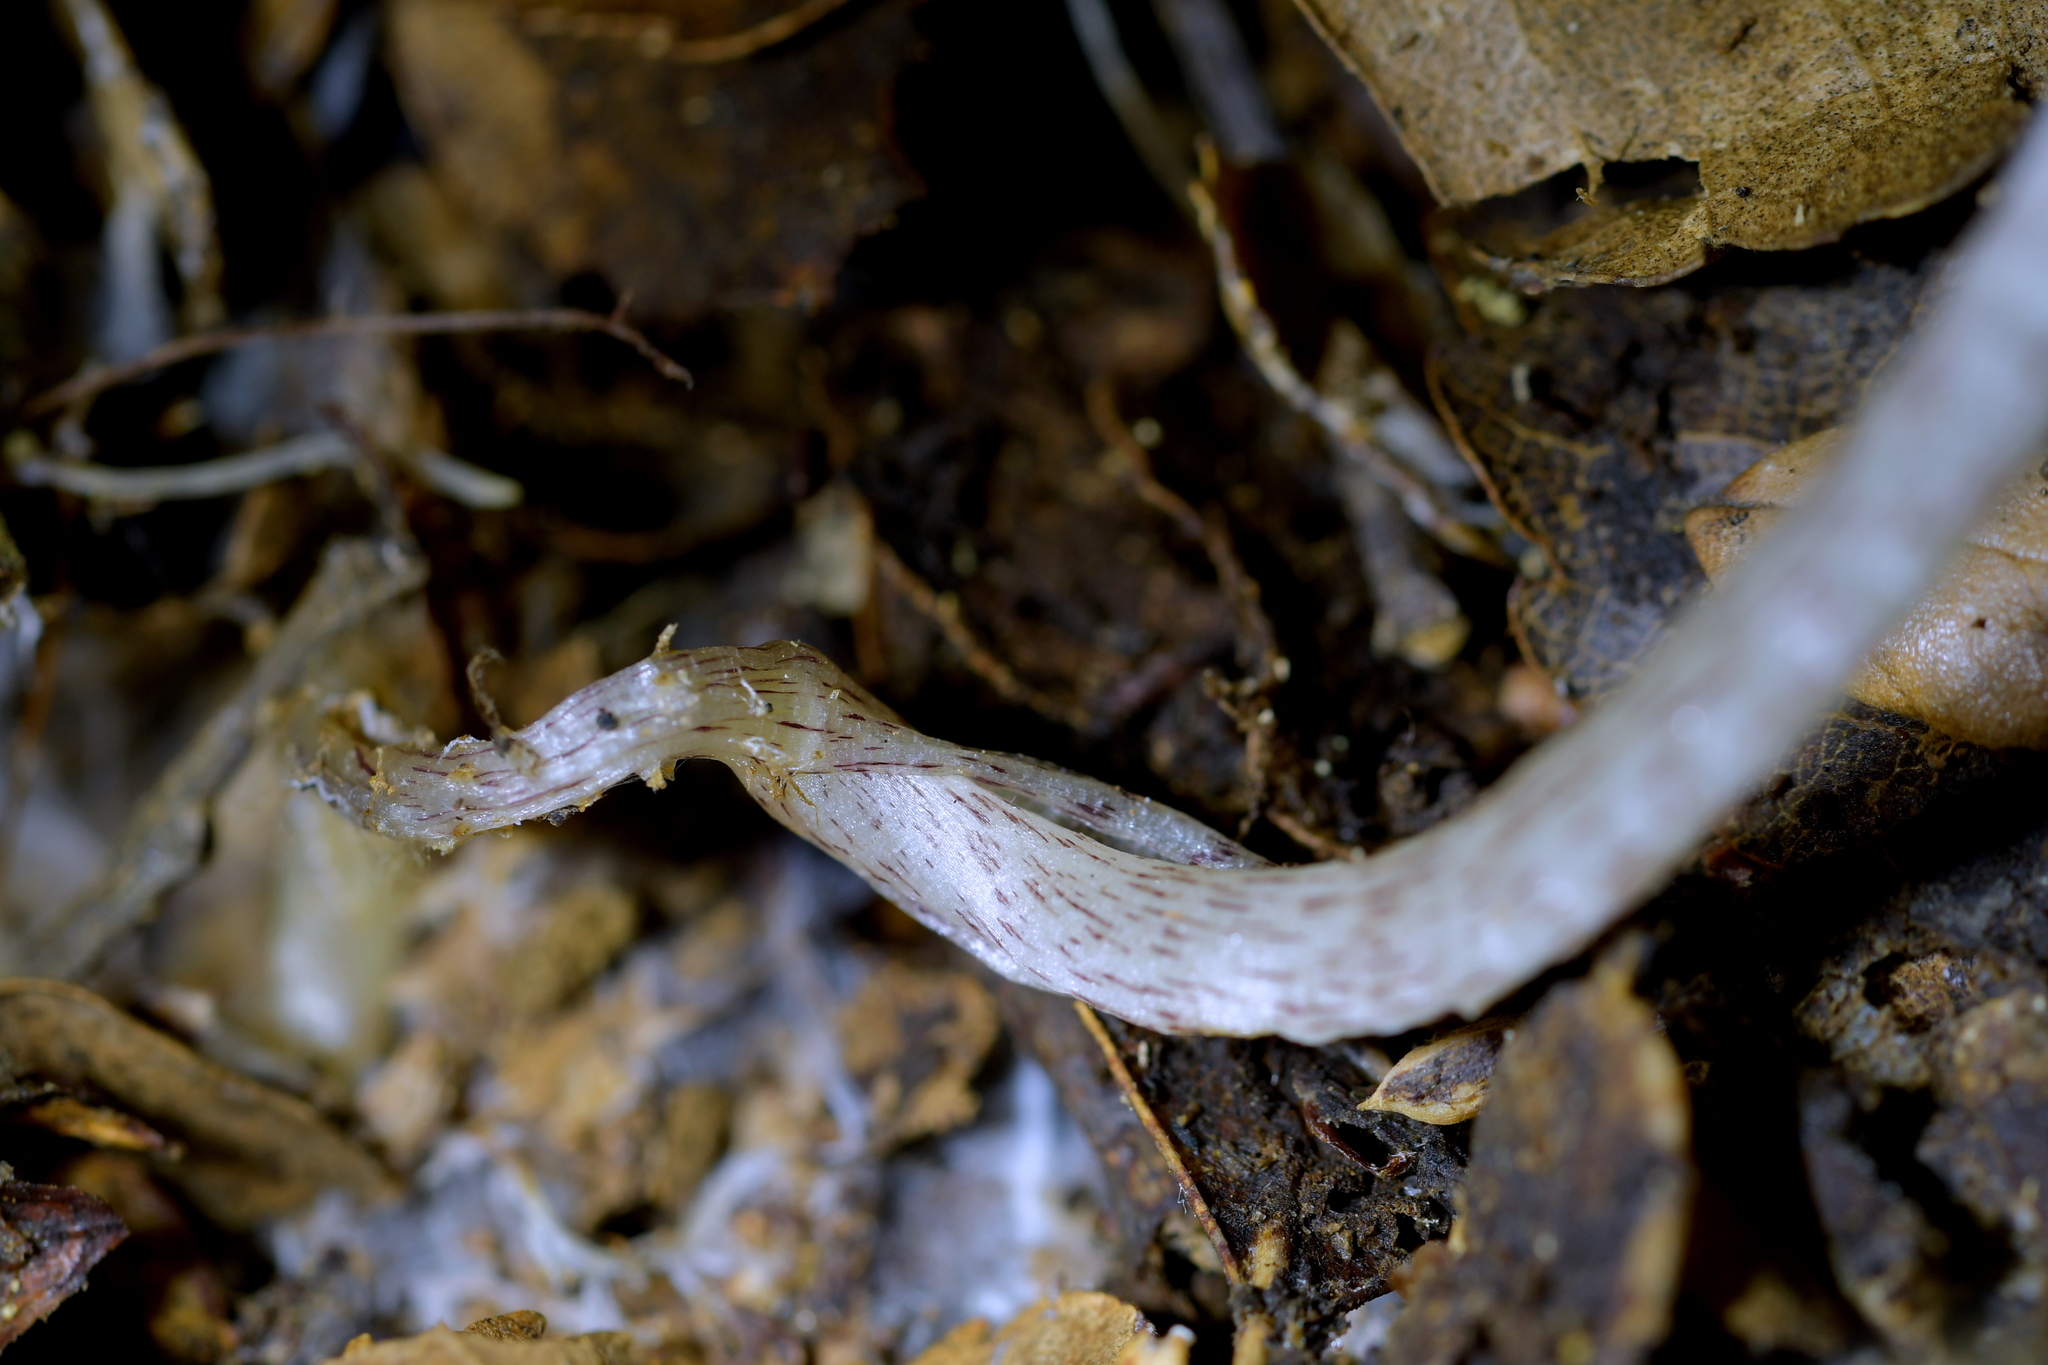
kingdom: Plantae
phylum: Tracheophyta
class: Liliopsida
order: Asparagales
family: Orchidaceae
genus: Corybas
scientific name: Corybas cryptanthus
